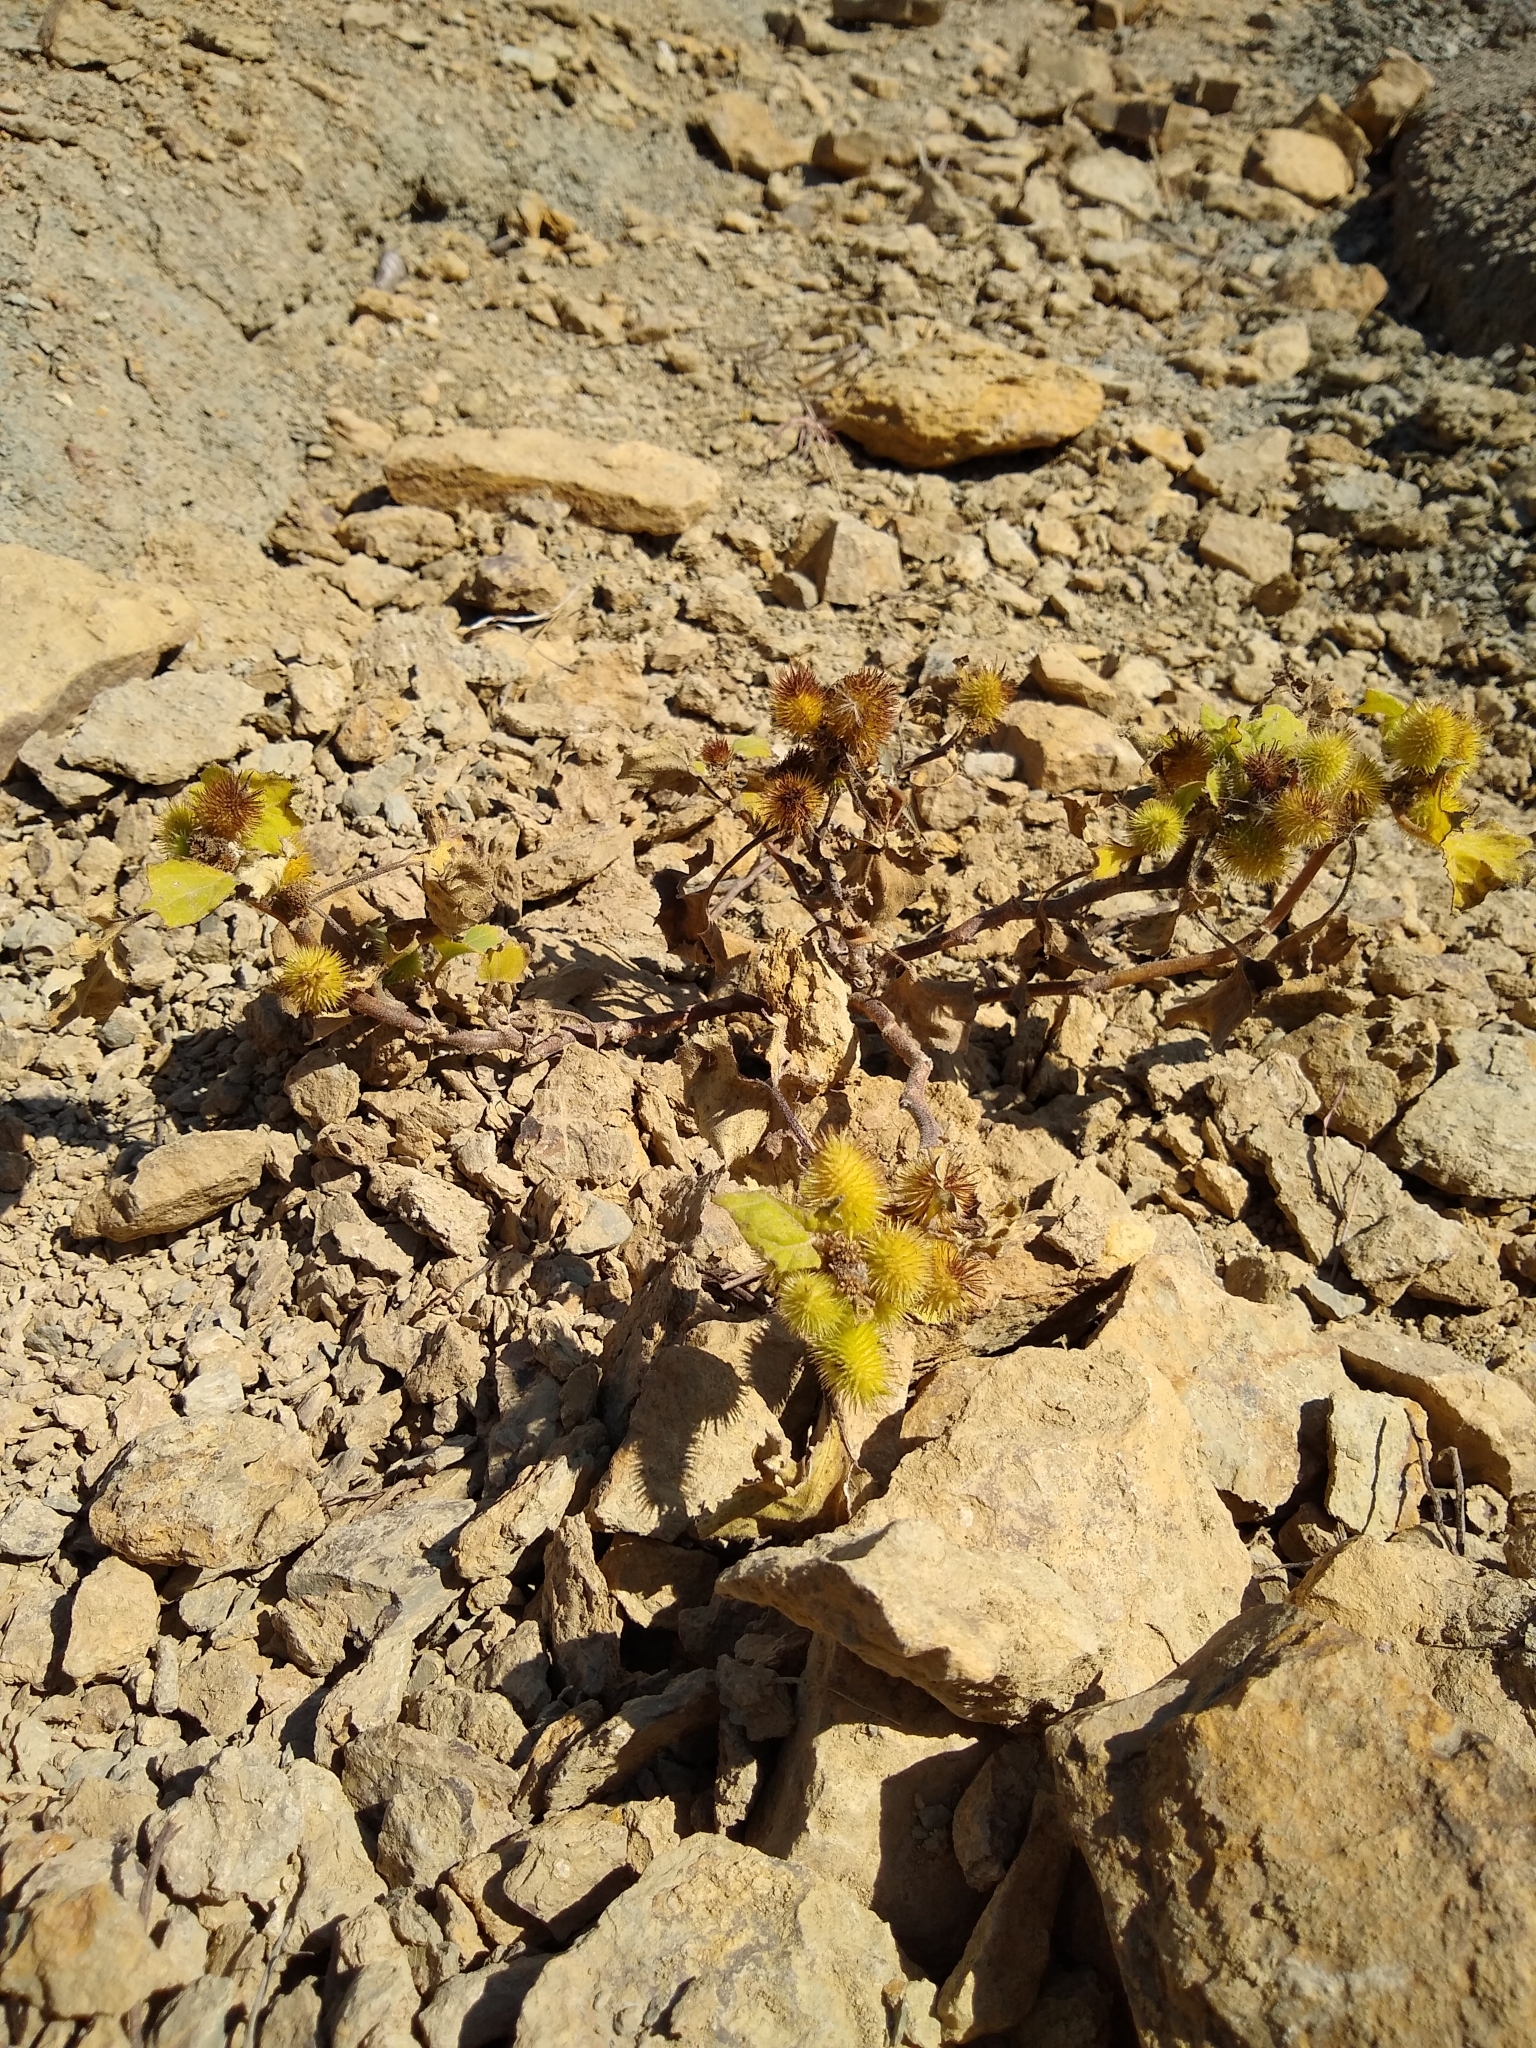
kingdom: Plantae
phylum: Tracheophyta
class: Magnoliopsida
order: Asterales
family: Asteraceae
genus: Xanthium
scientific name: Xanthium strumarium
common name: Rough cocklebur
